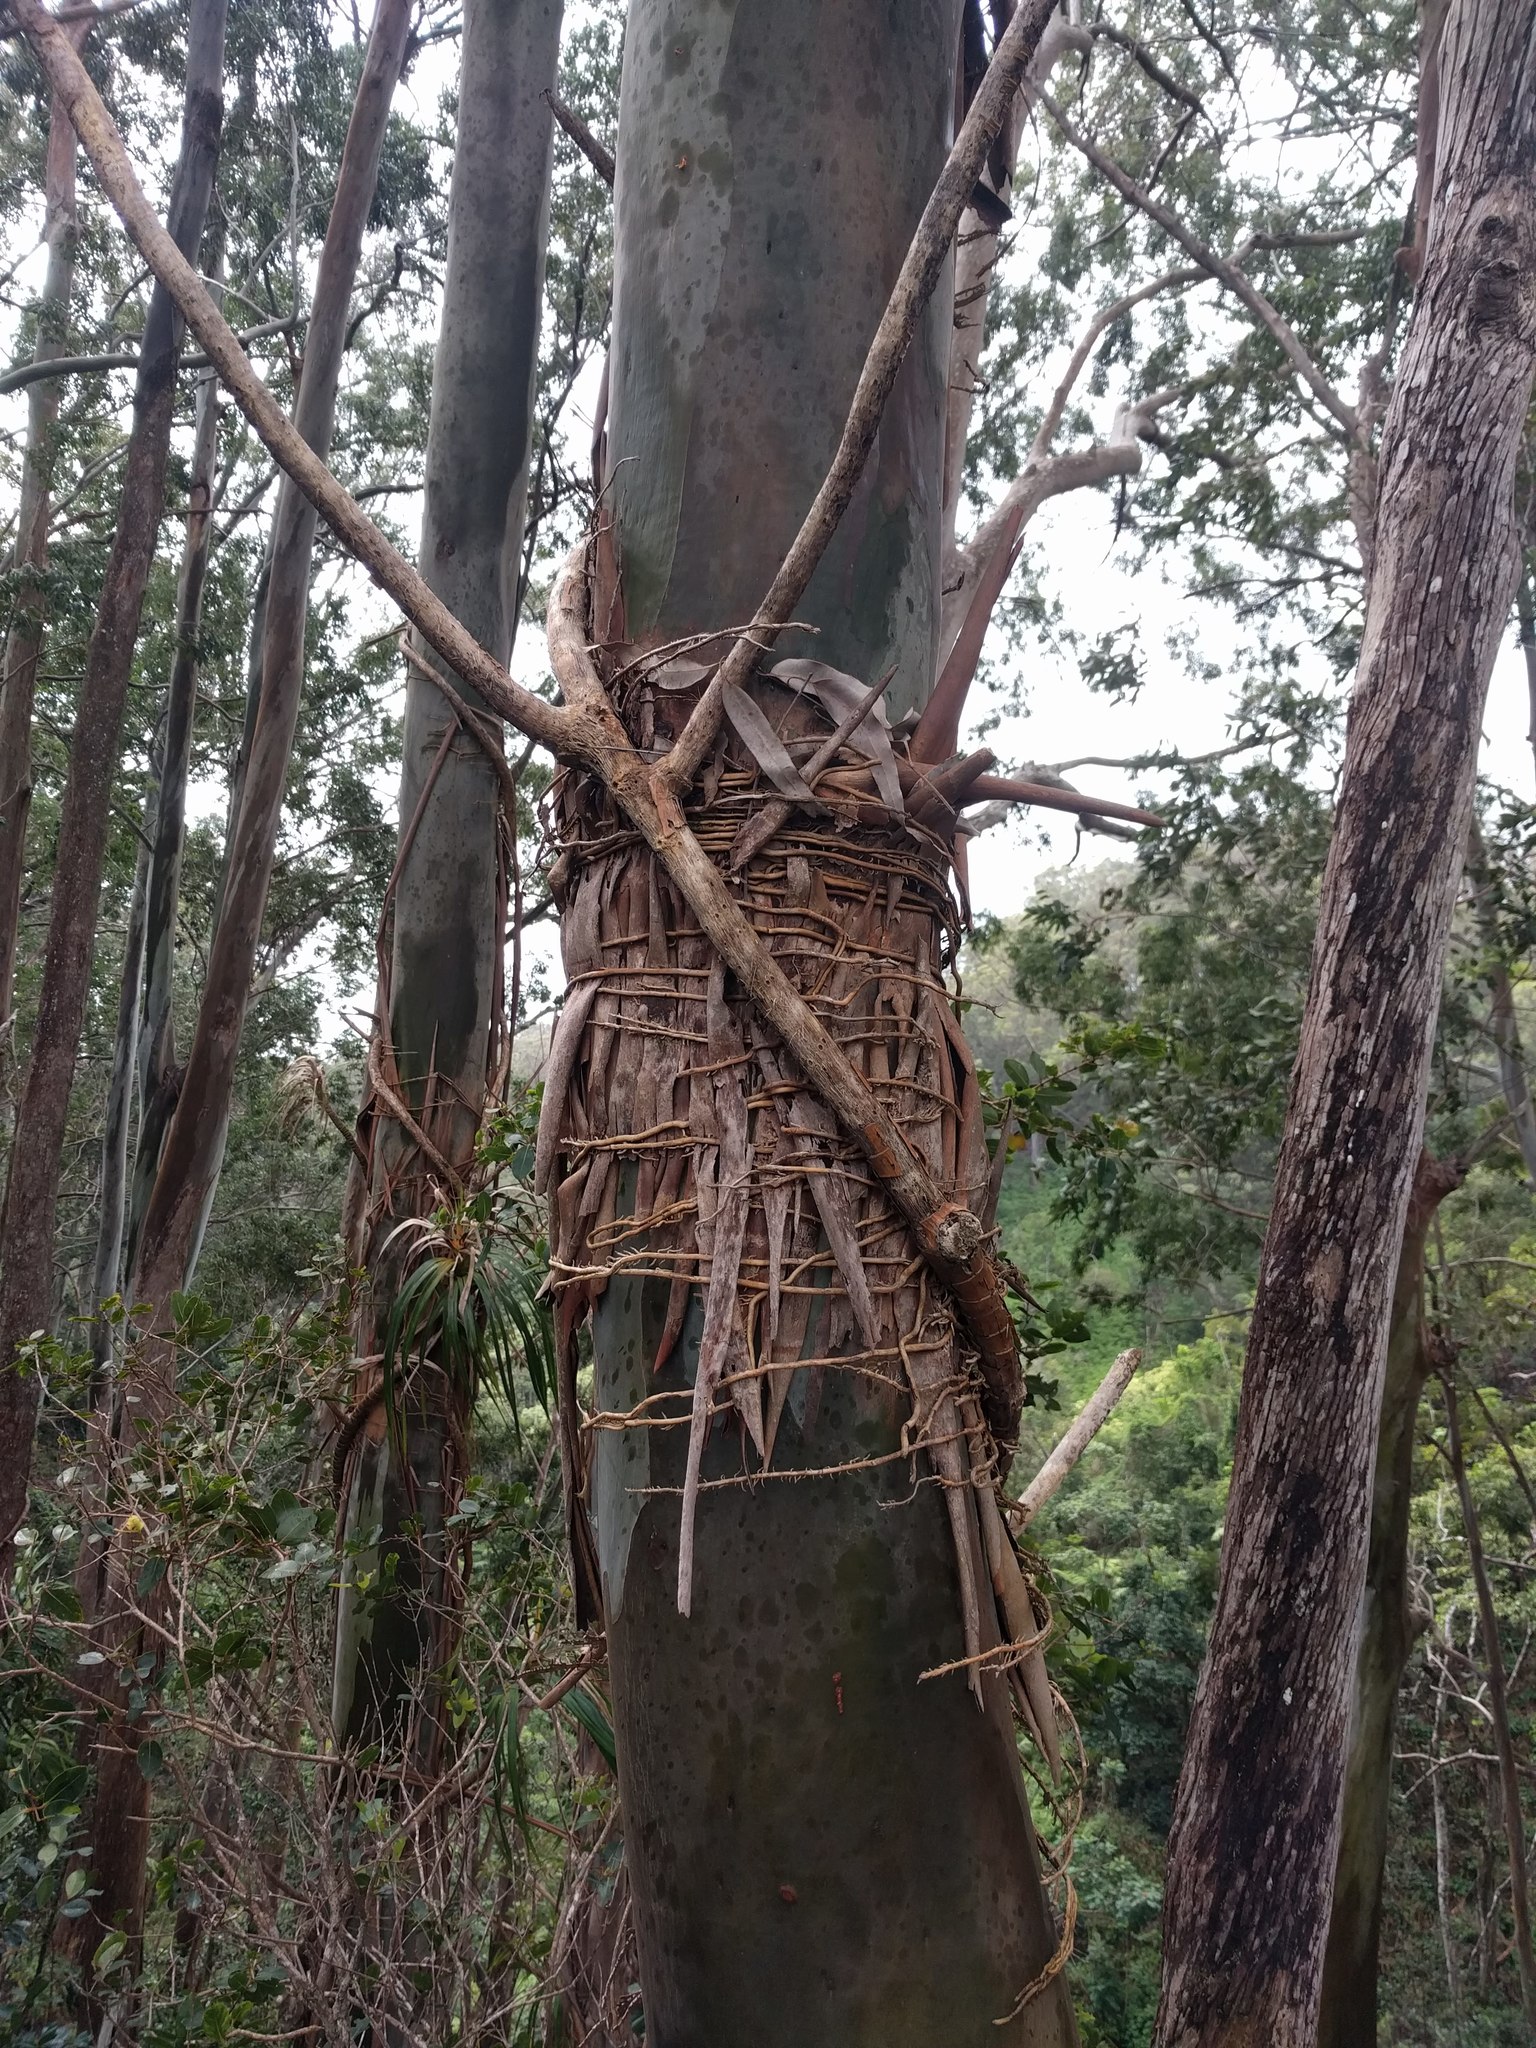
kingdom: Plantae
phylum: Tracheophyta
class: Liliopsida
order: Pandanales
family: Pandanaceae
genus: Freycinetia
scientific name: Freycinetia arborea
